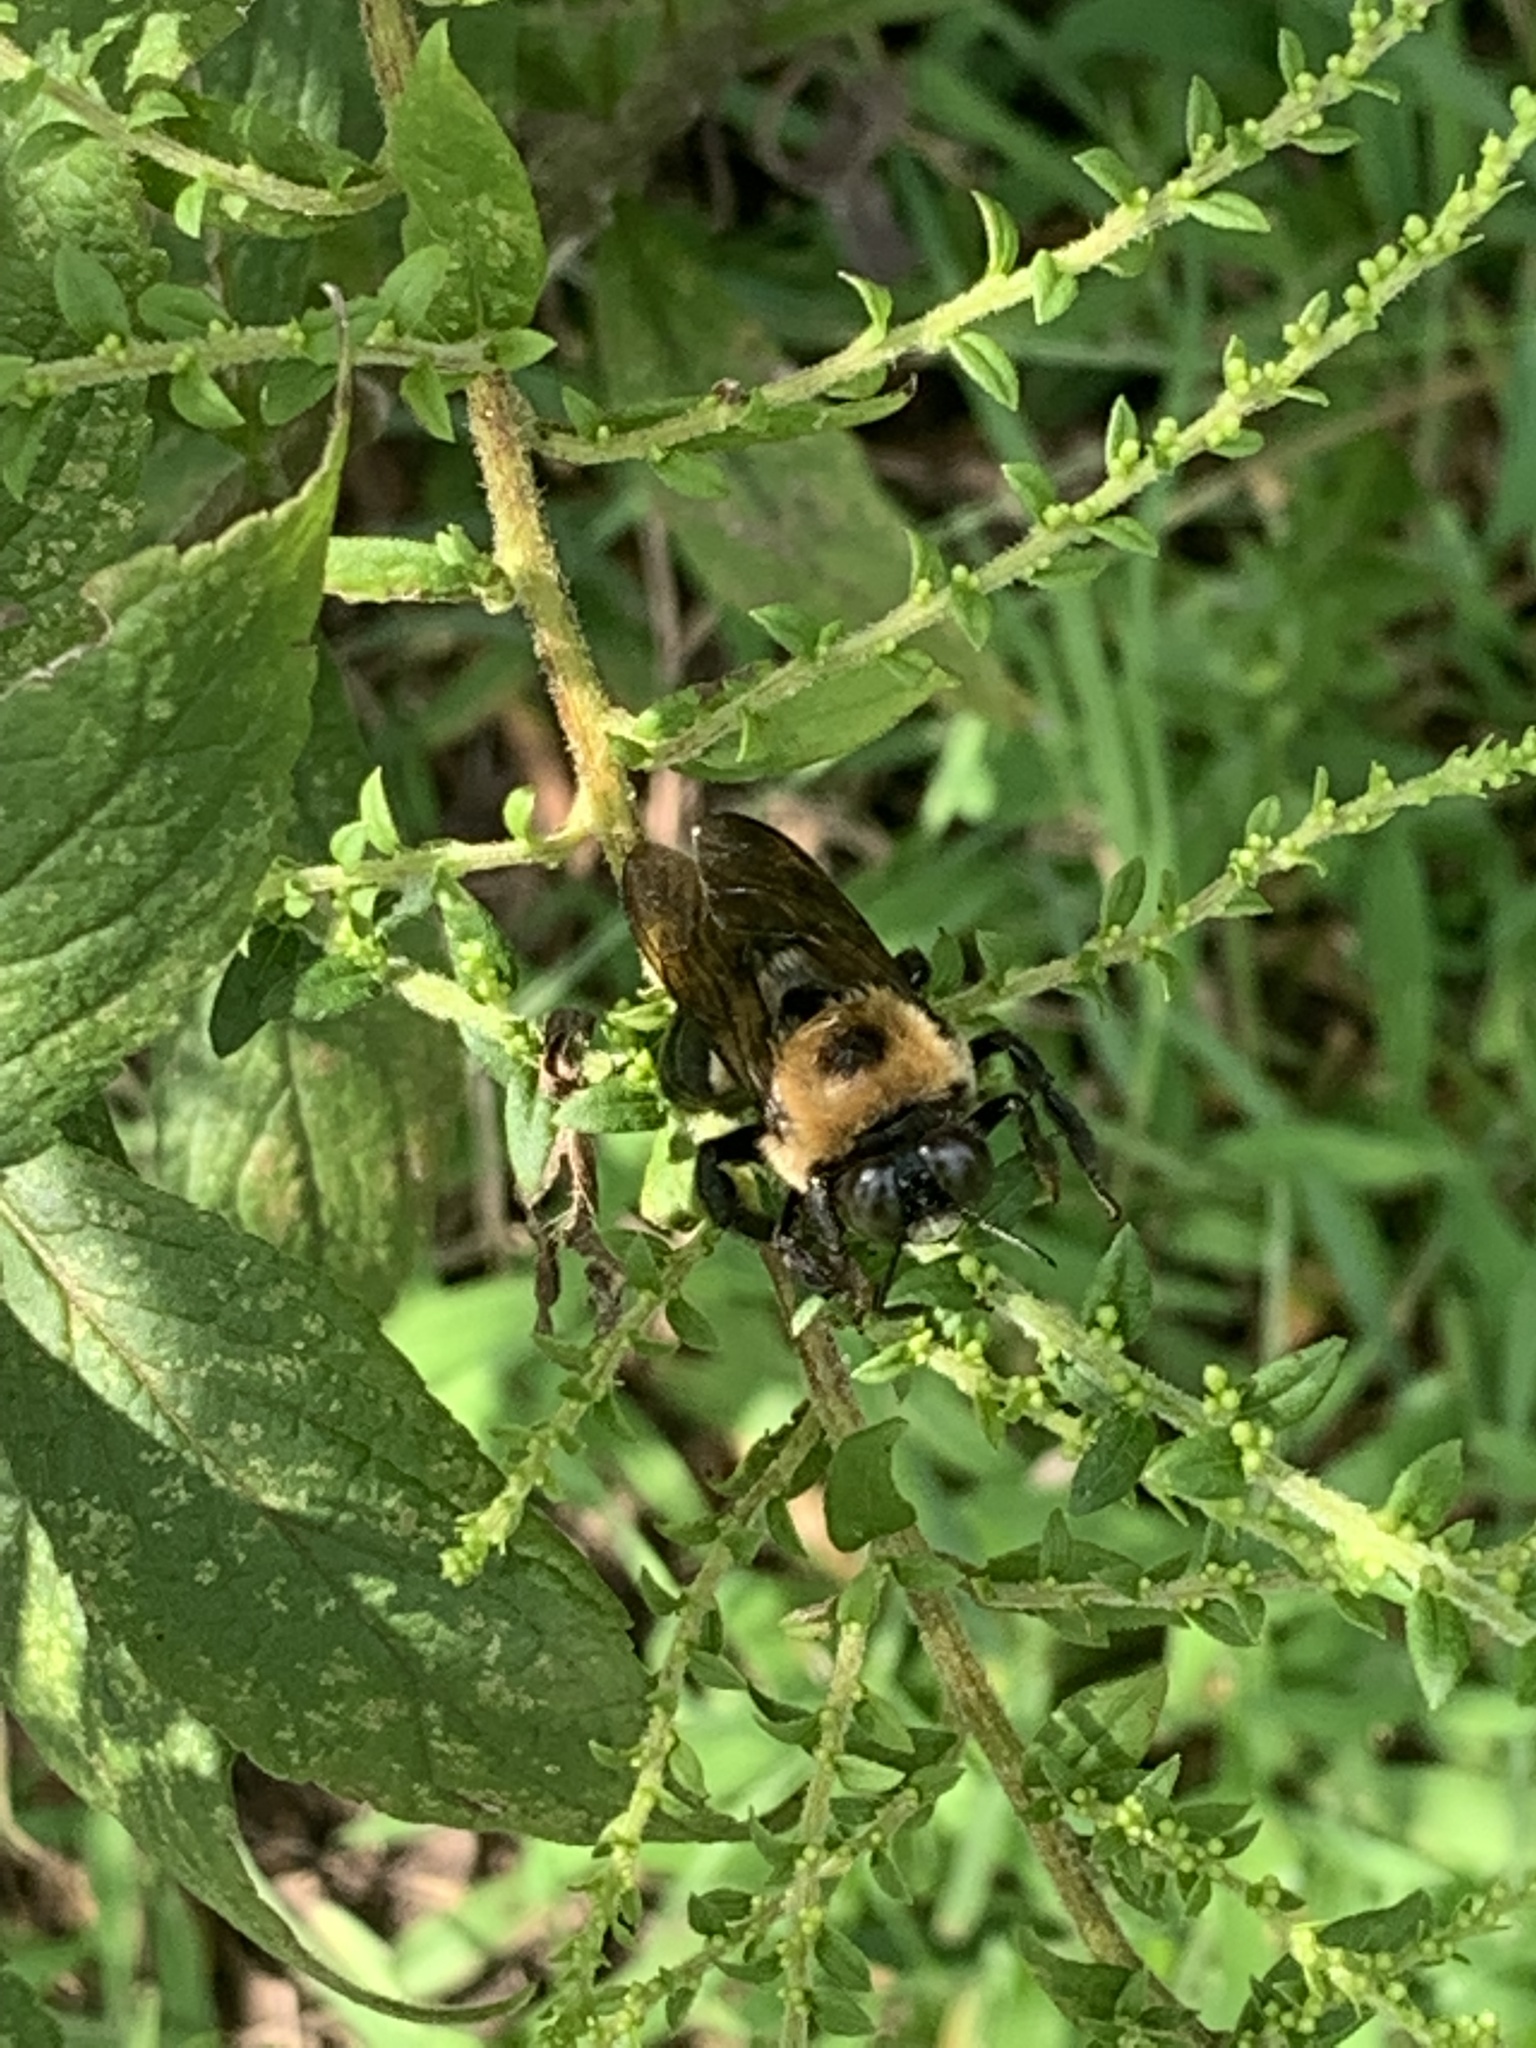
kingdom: Animalia
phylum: Arthropoda
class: Insecta
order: Hymenoptera
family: Apidae
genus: Xylocopa
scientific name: Xylocopa virginica
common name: Carpenter bee
